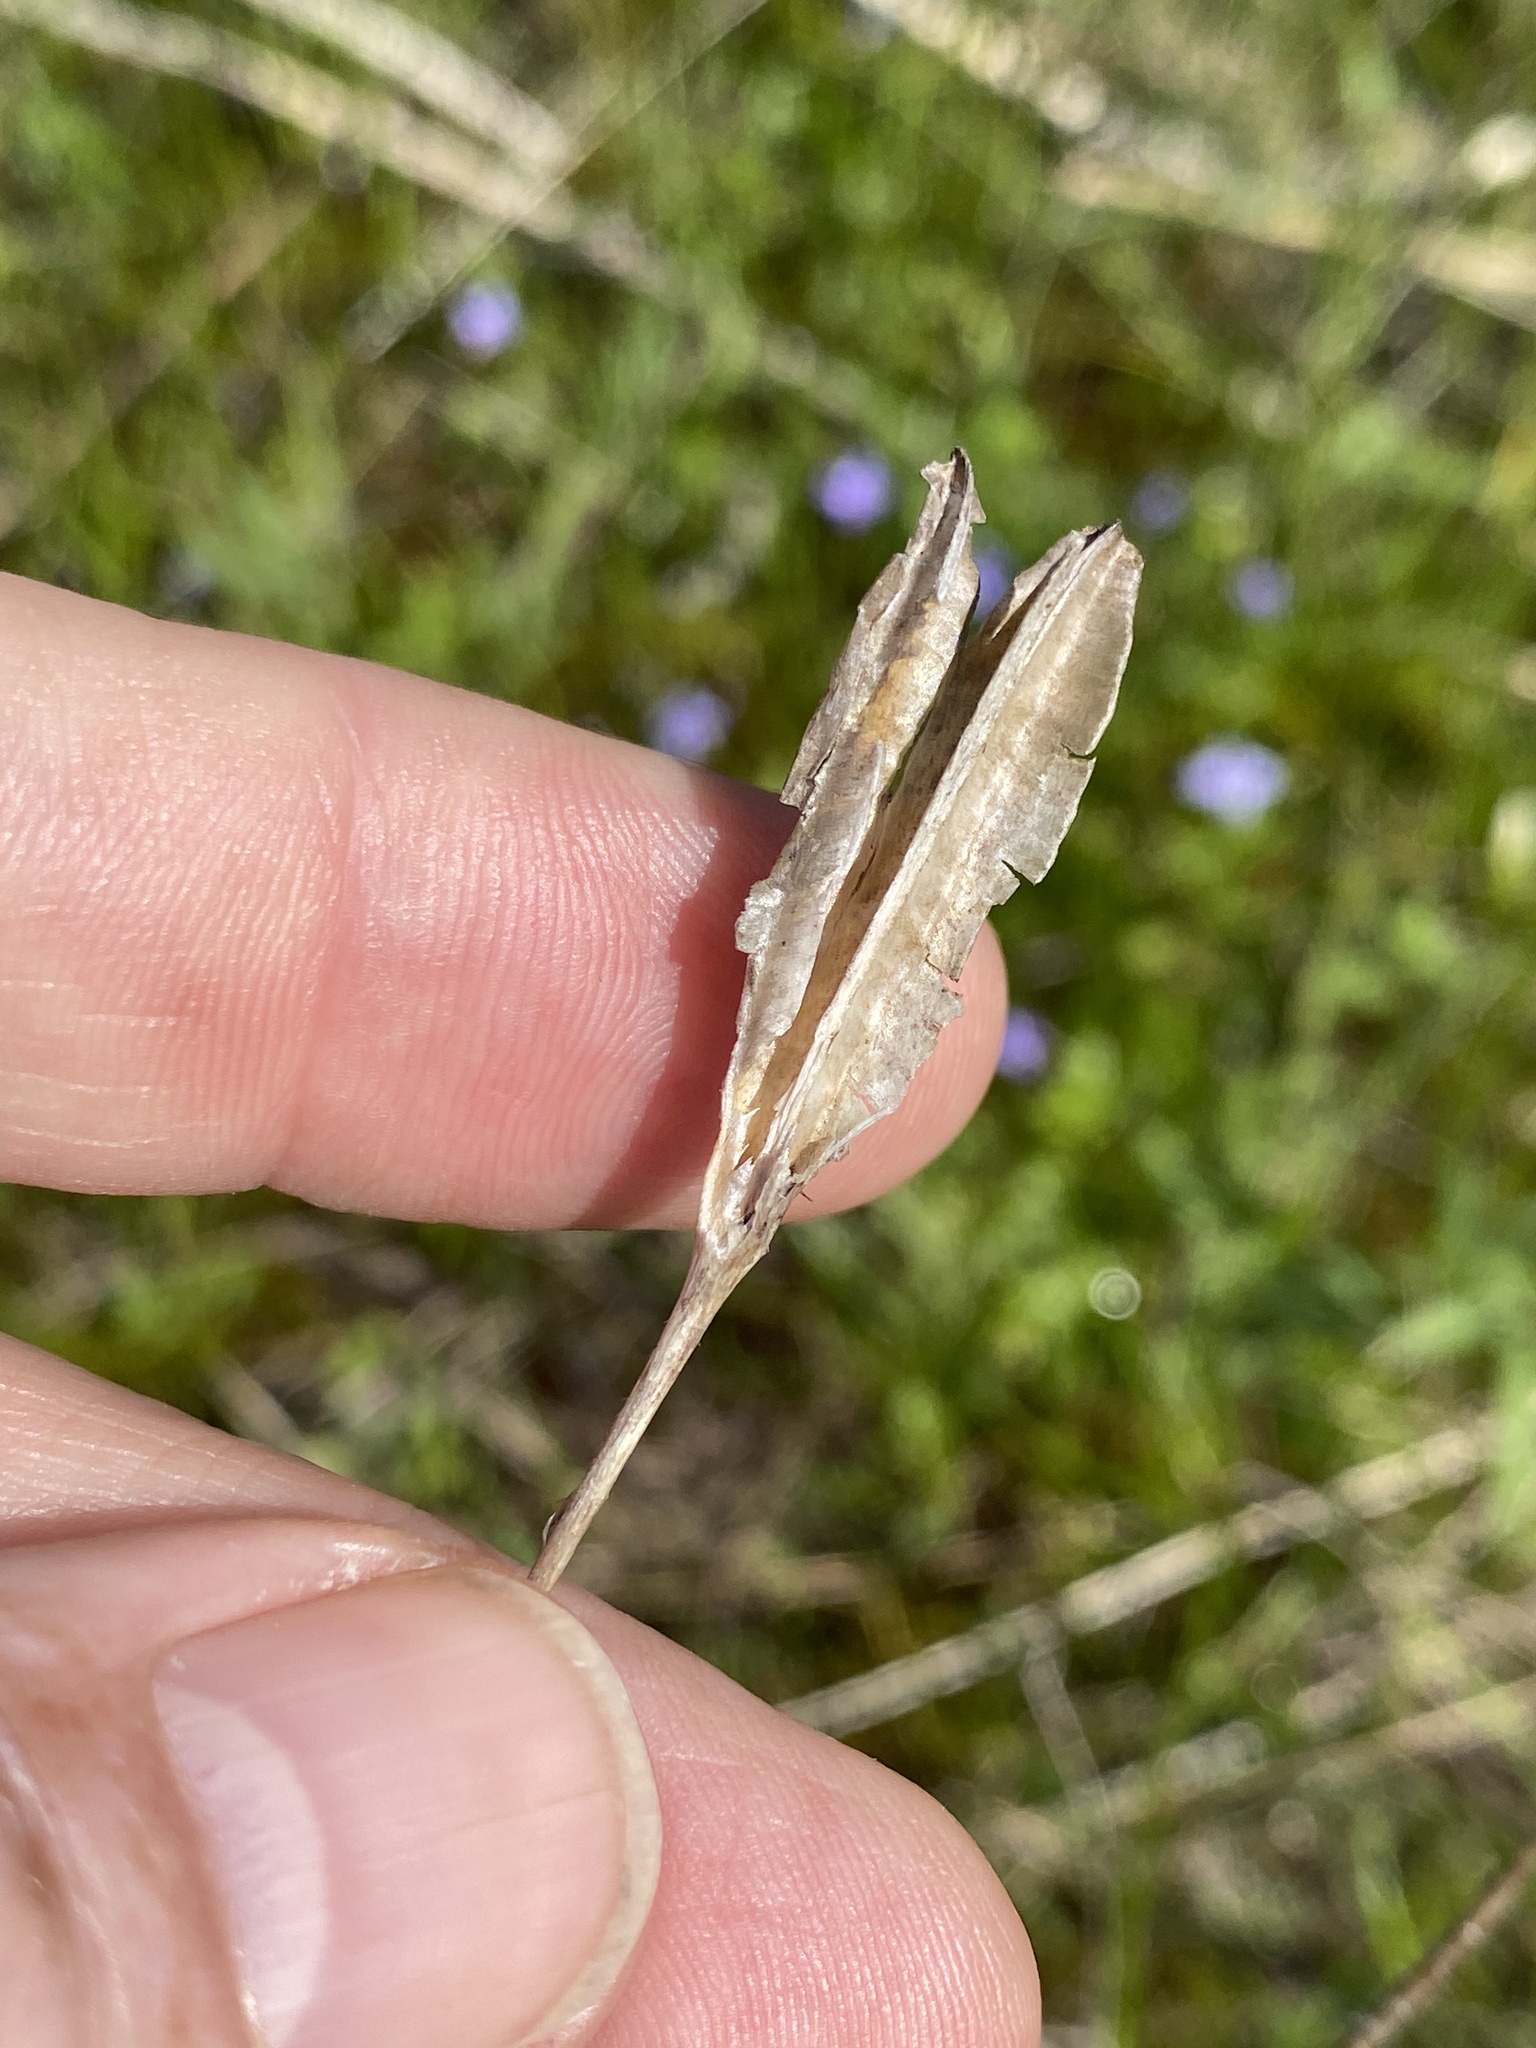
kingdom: Plantae
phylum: Tracheophyta
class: Liliopsida
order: Asparagales
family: Iridaceae
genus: Nemastylis
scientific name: Nemastylis nuttallii
